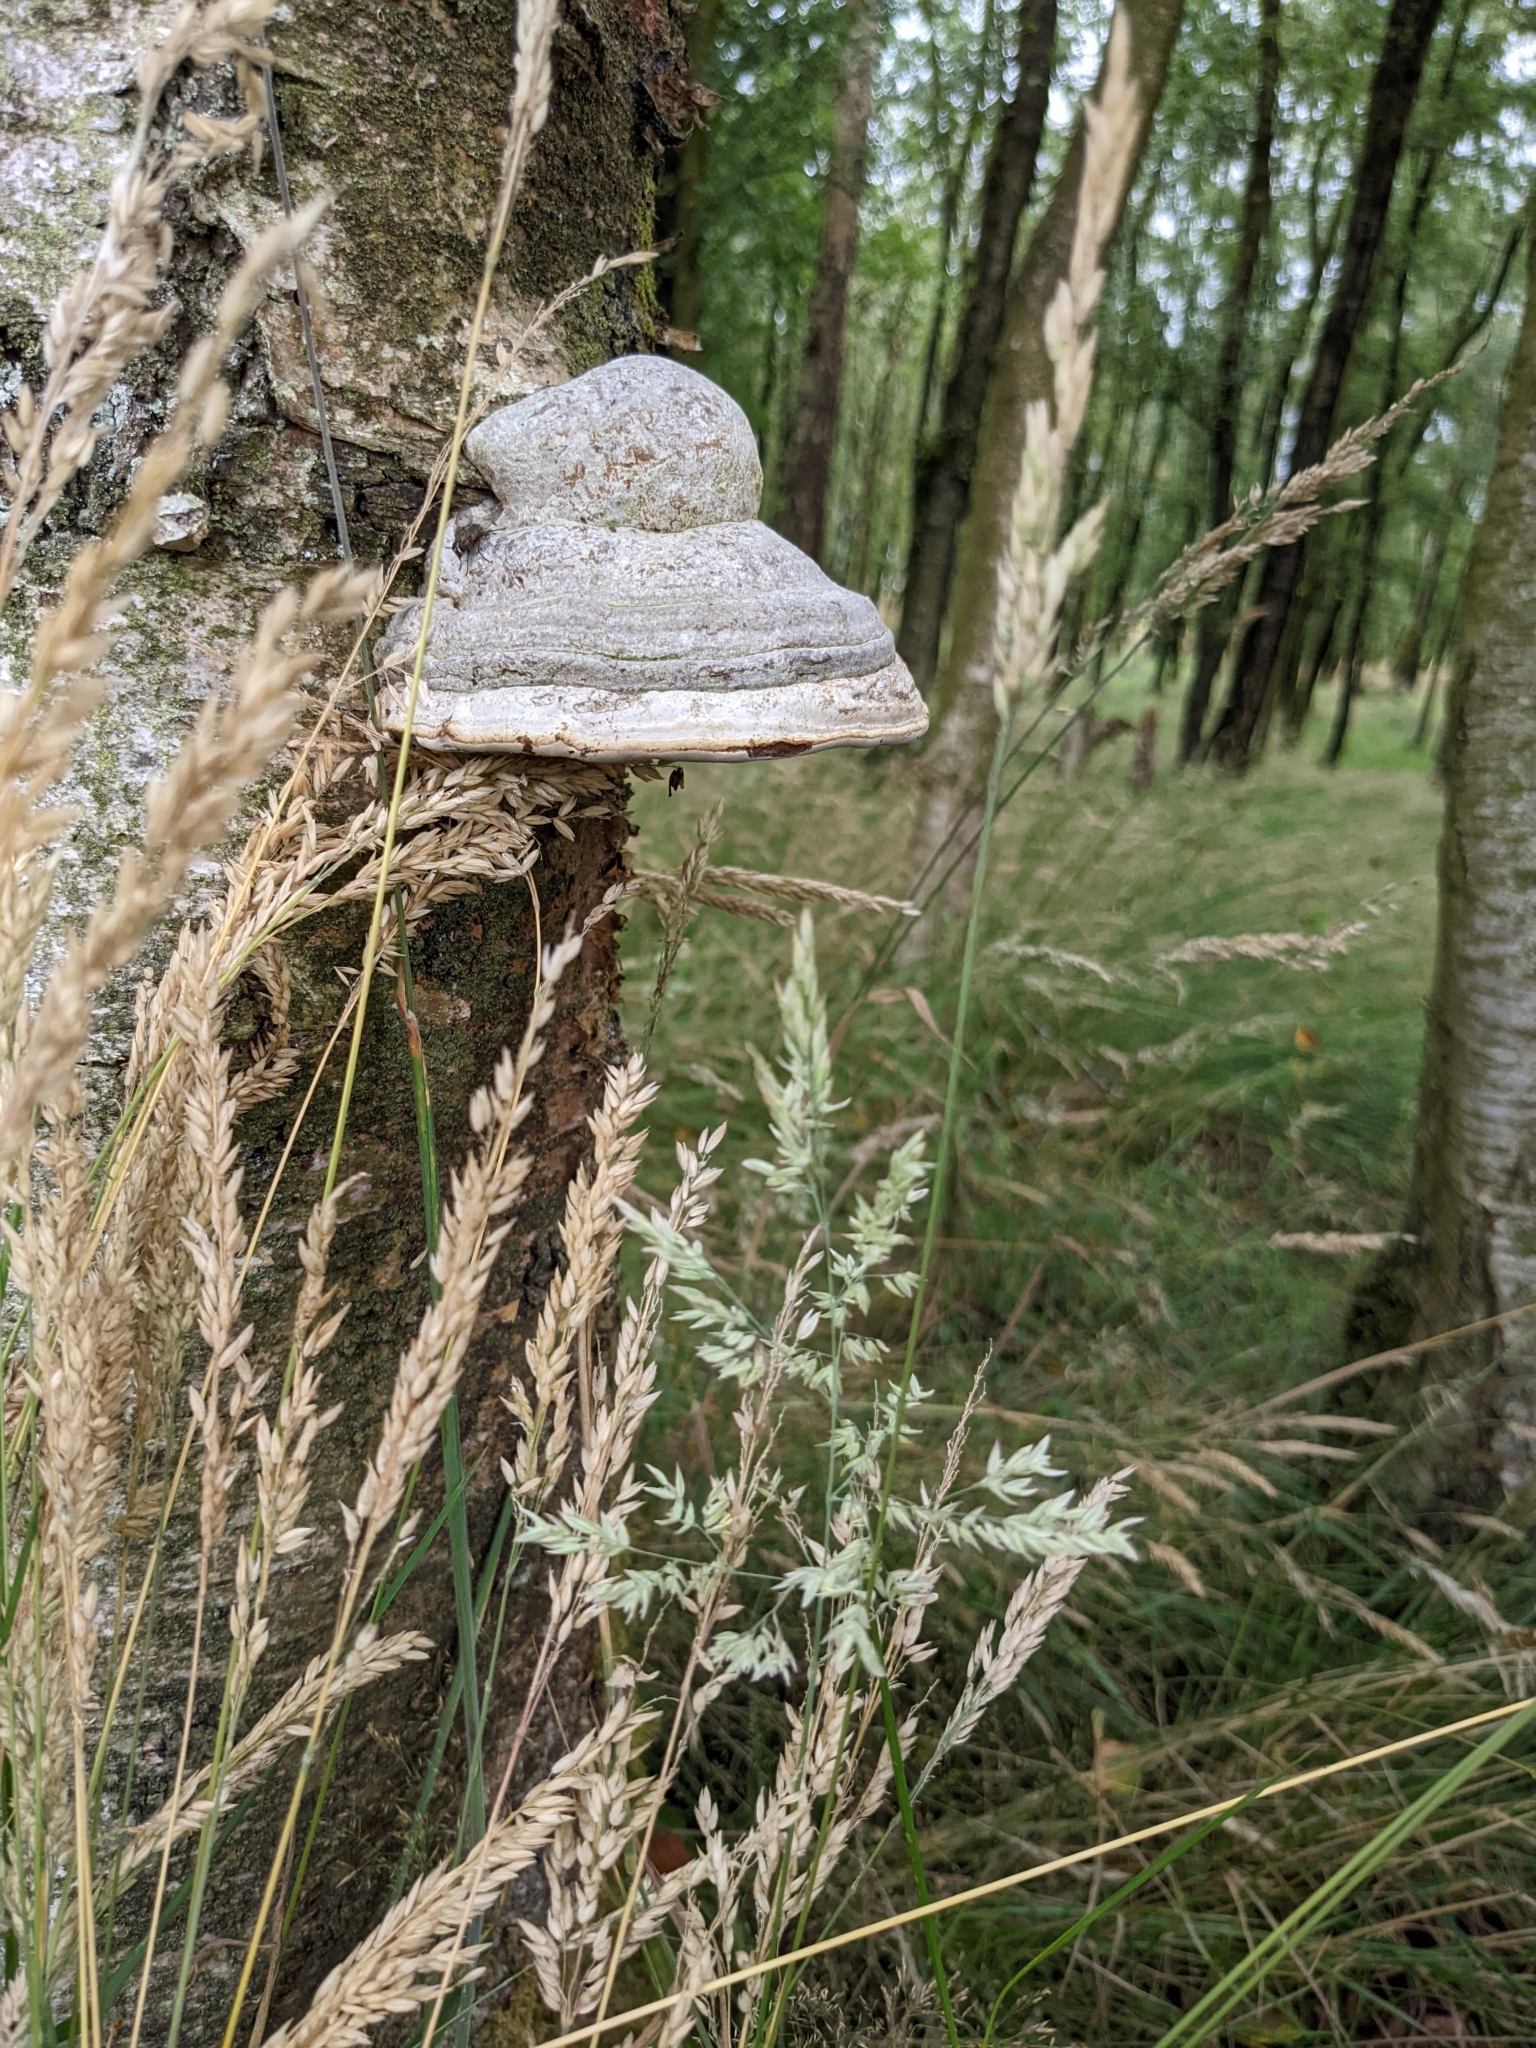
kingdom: Fungi
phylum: Basidiomycota
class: Agaricomycetes
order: Polyporales
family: Polyporaceae
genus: Fomes
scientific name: Fomes fomentarius
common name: Hoof fungus
